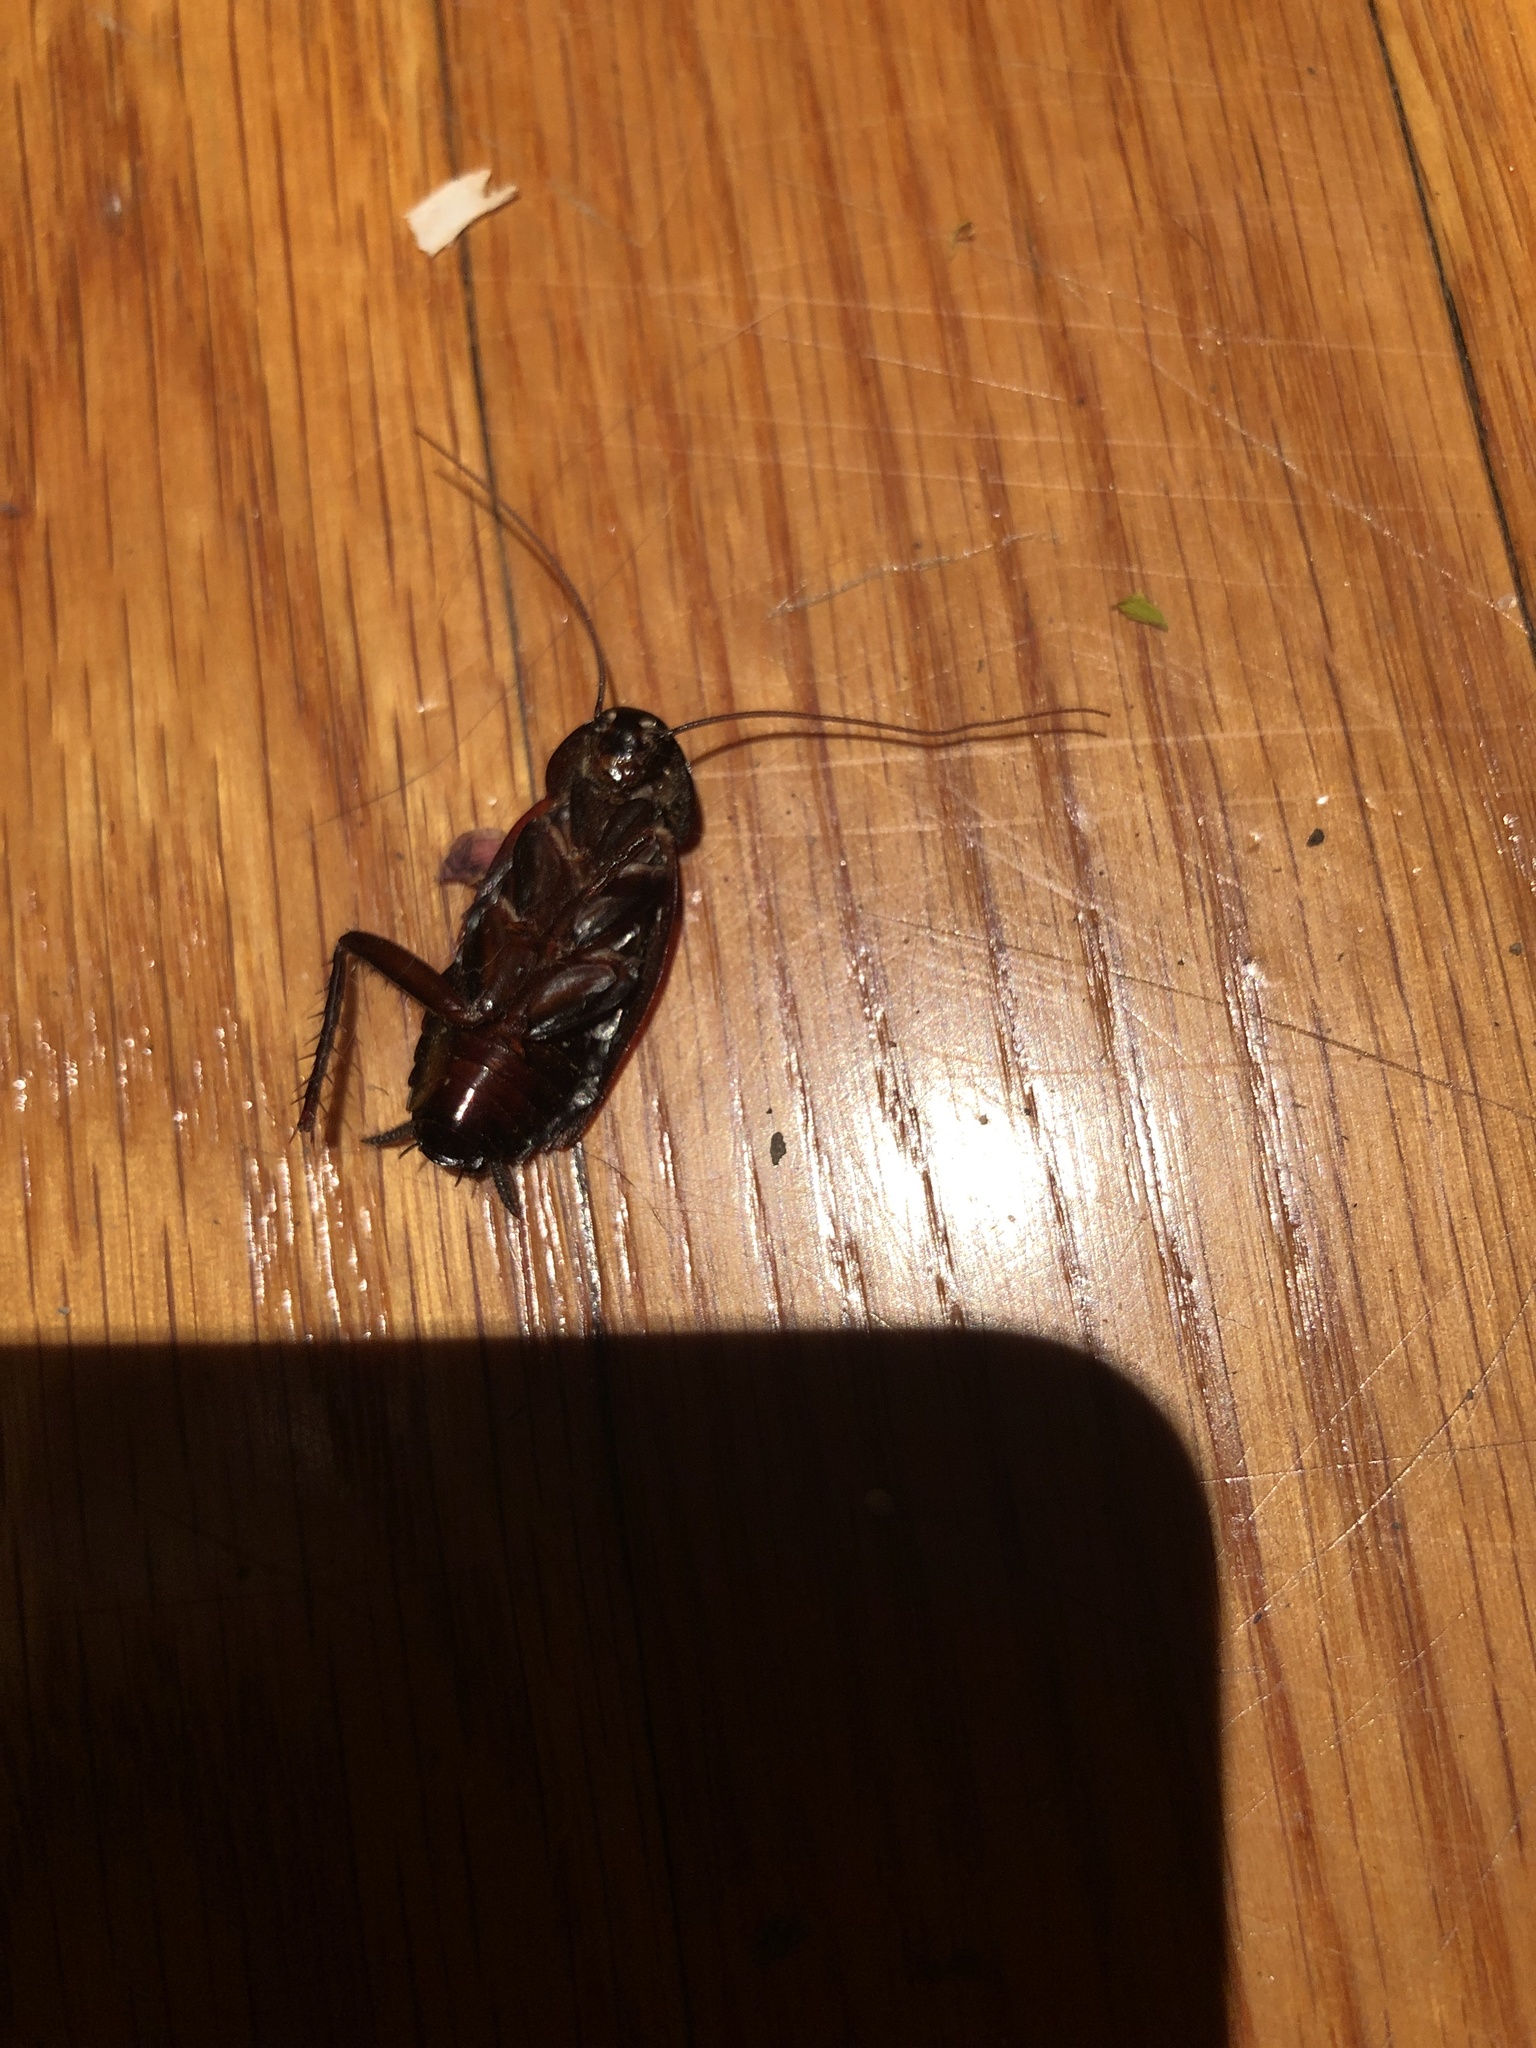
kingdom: Animalia
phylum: Arthropoda
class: Insecta
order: Blattodea
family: Blattidae
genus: Blatta
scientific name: Blatta orientalis
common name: Oriental cockroach
